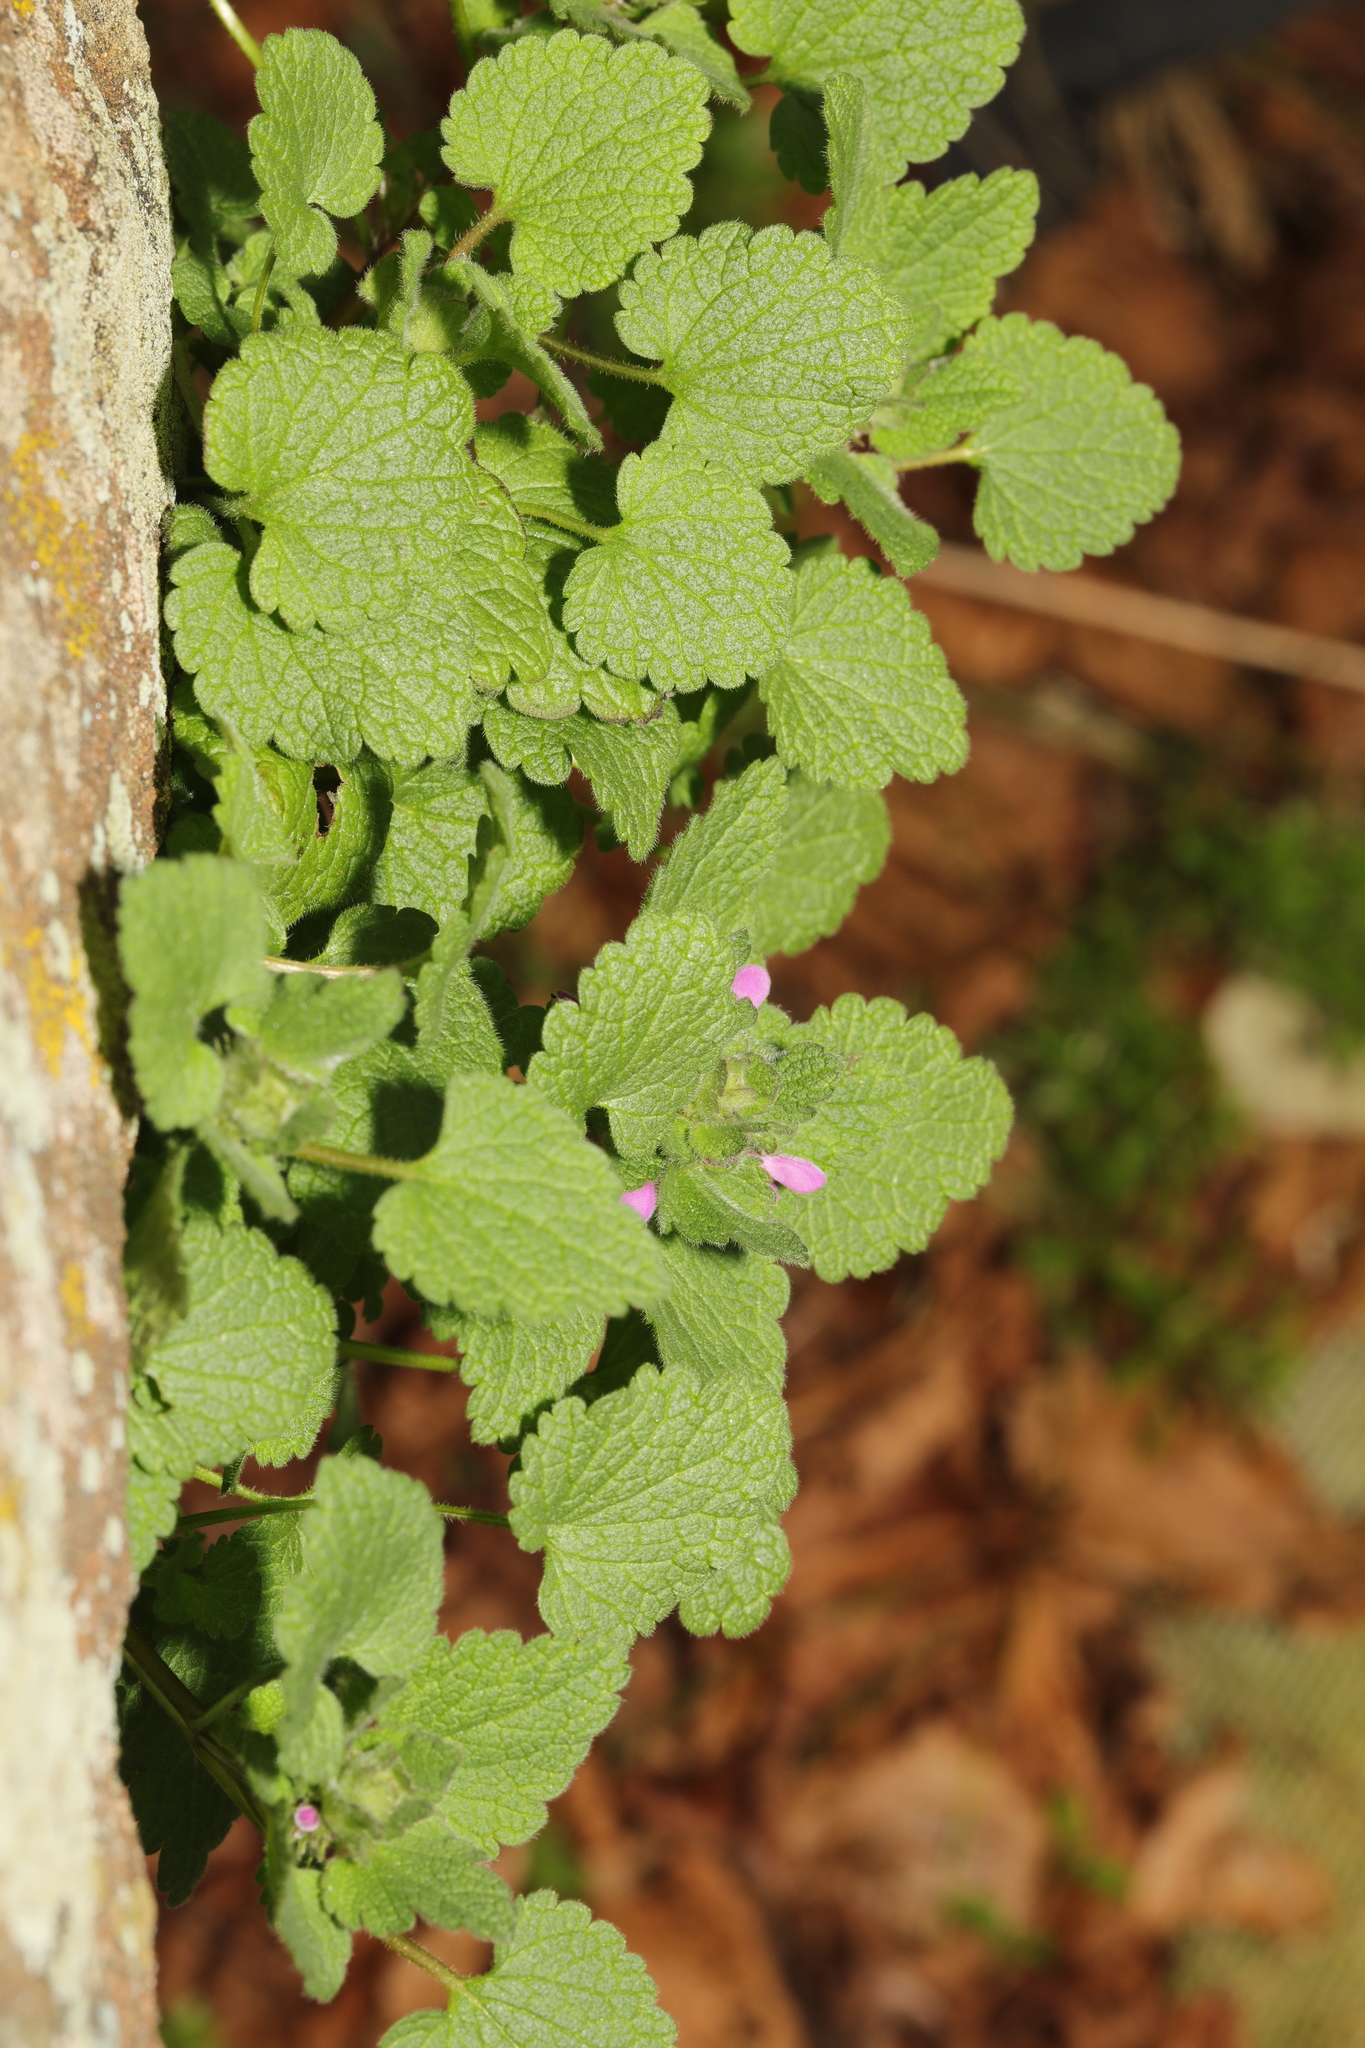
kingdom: Plantae
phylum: Tracheophyta
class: Magnoliopsida
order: Lamiales
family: Lamiaceae
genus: Lamium
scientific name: Lamium purpureum
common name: Red dead-nettle
